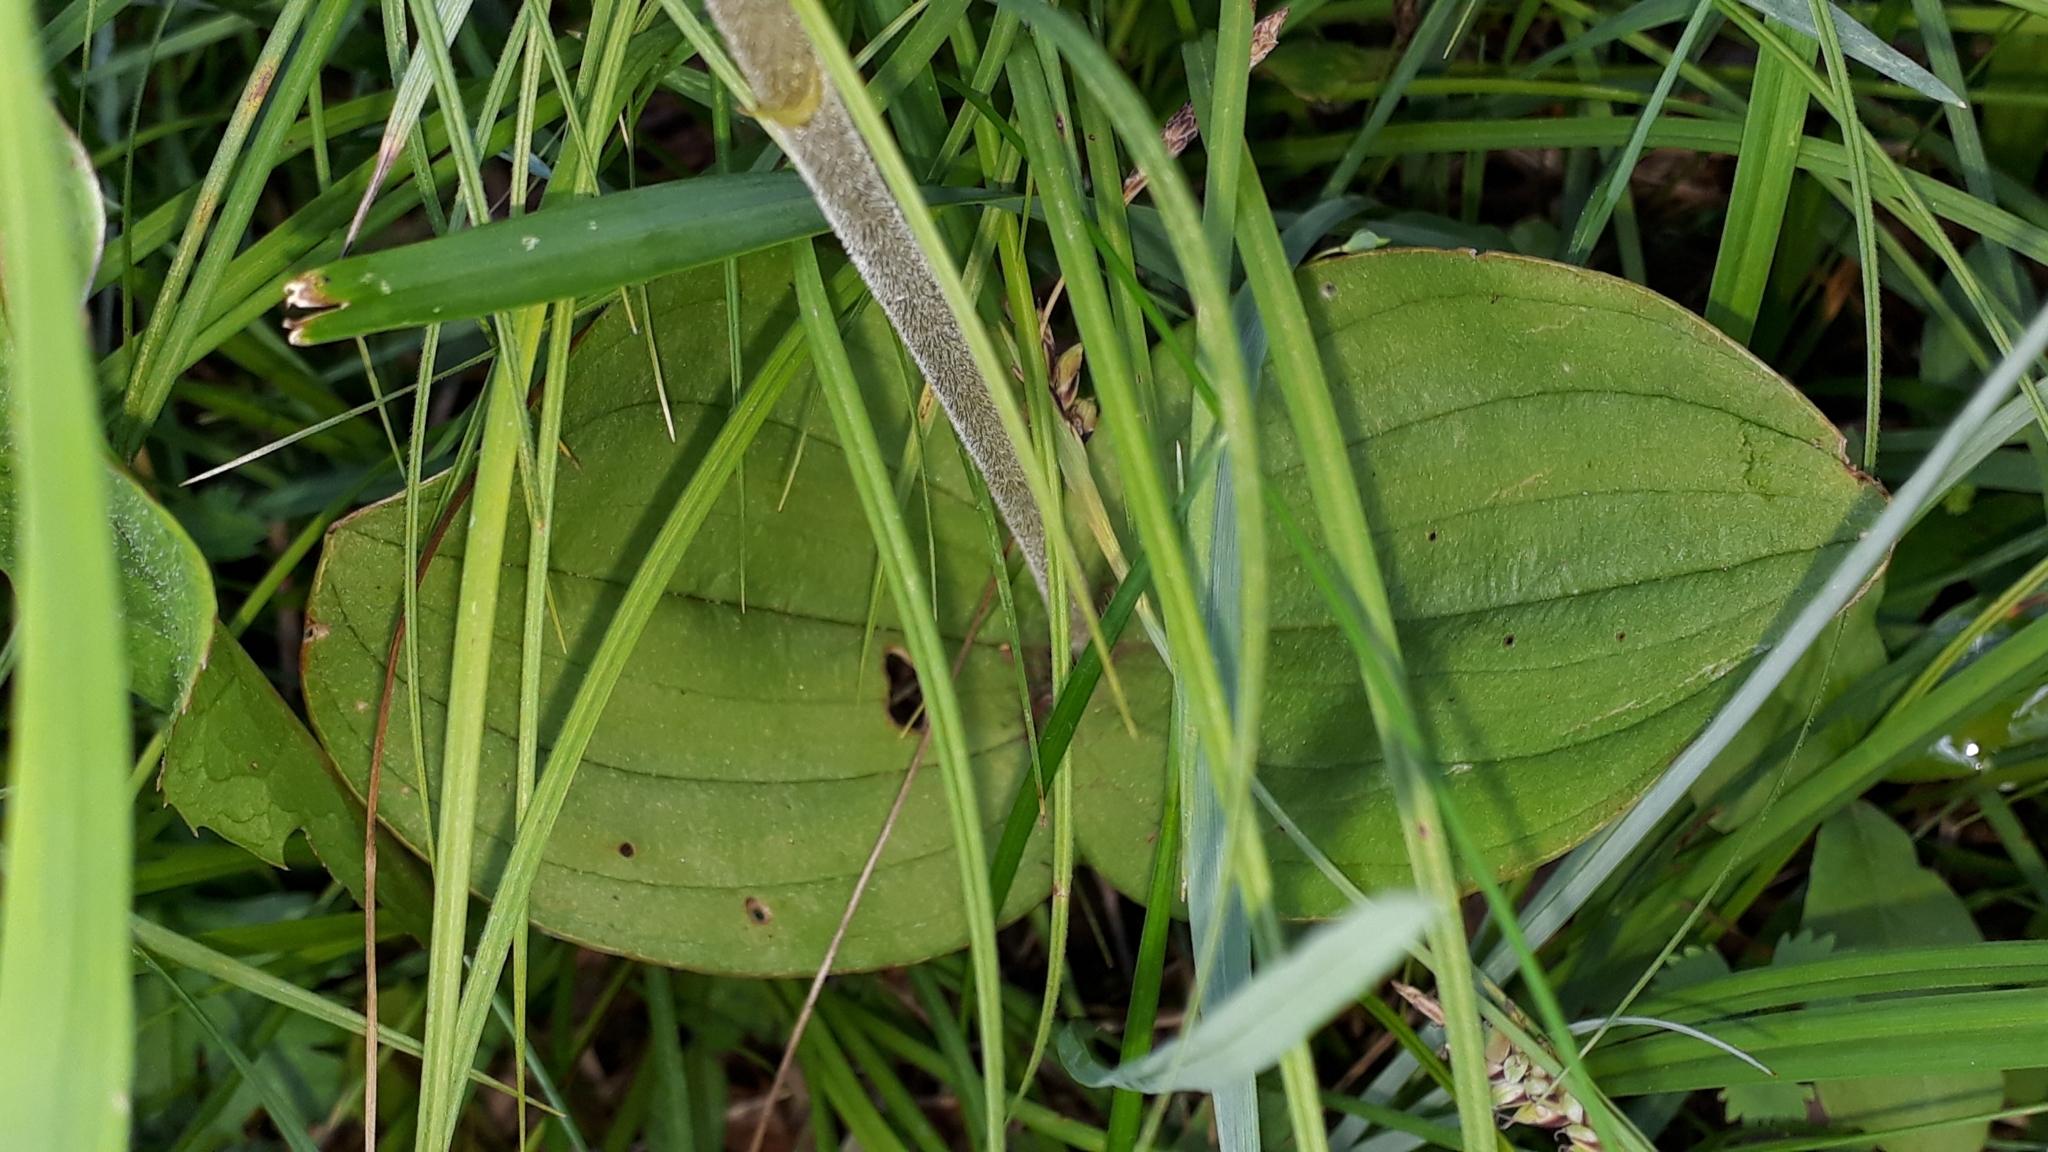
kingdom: Plantae
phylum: Tracheophyta
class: Liliopsida
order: Asparagales
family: Orchidaceae
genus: Neottia
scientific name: Neottia ovata
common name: Common twayblade
